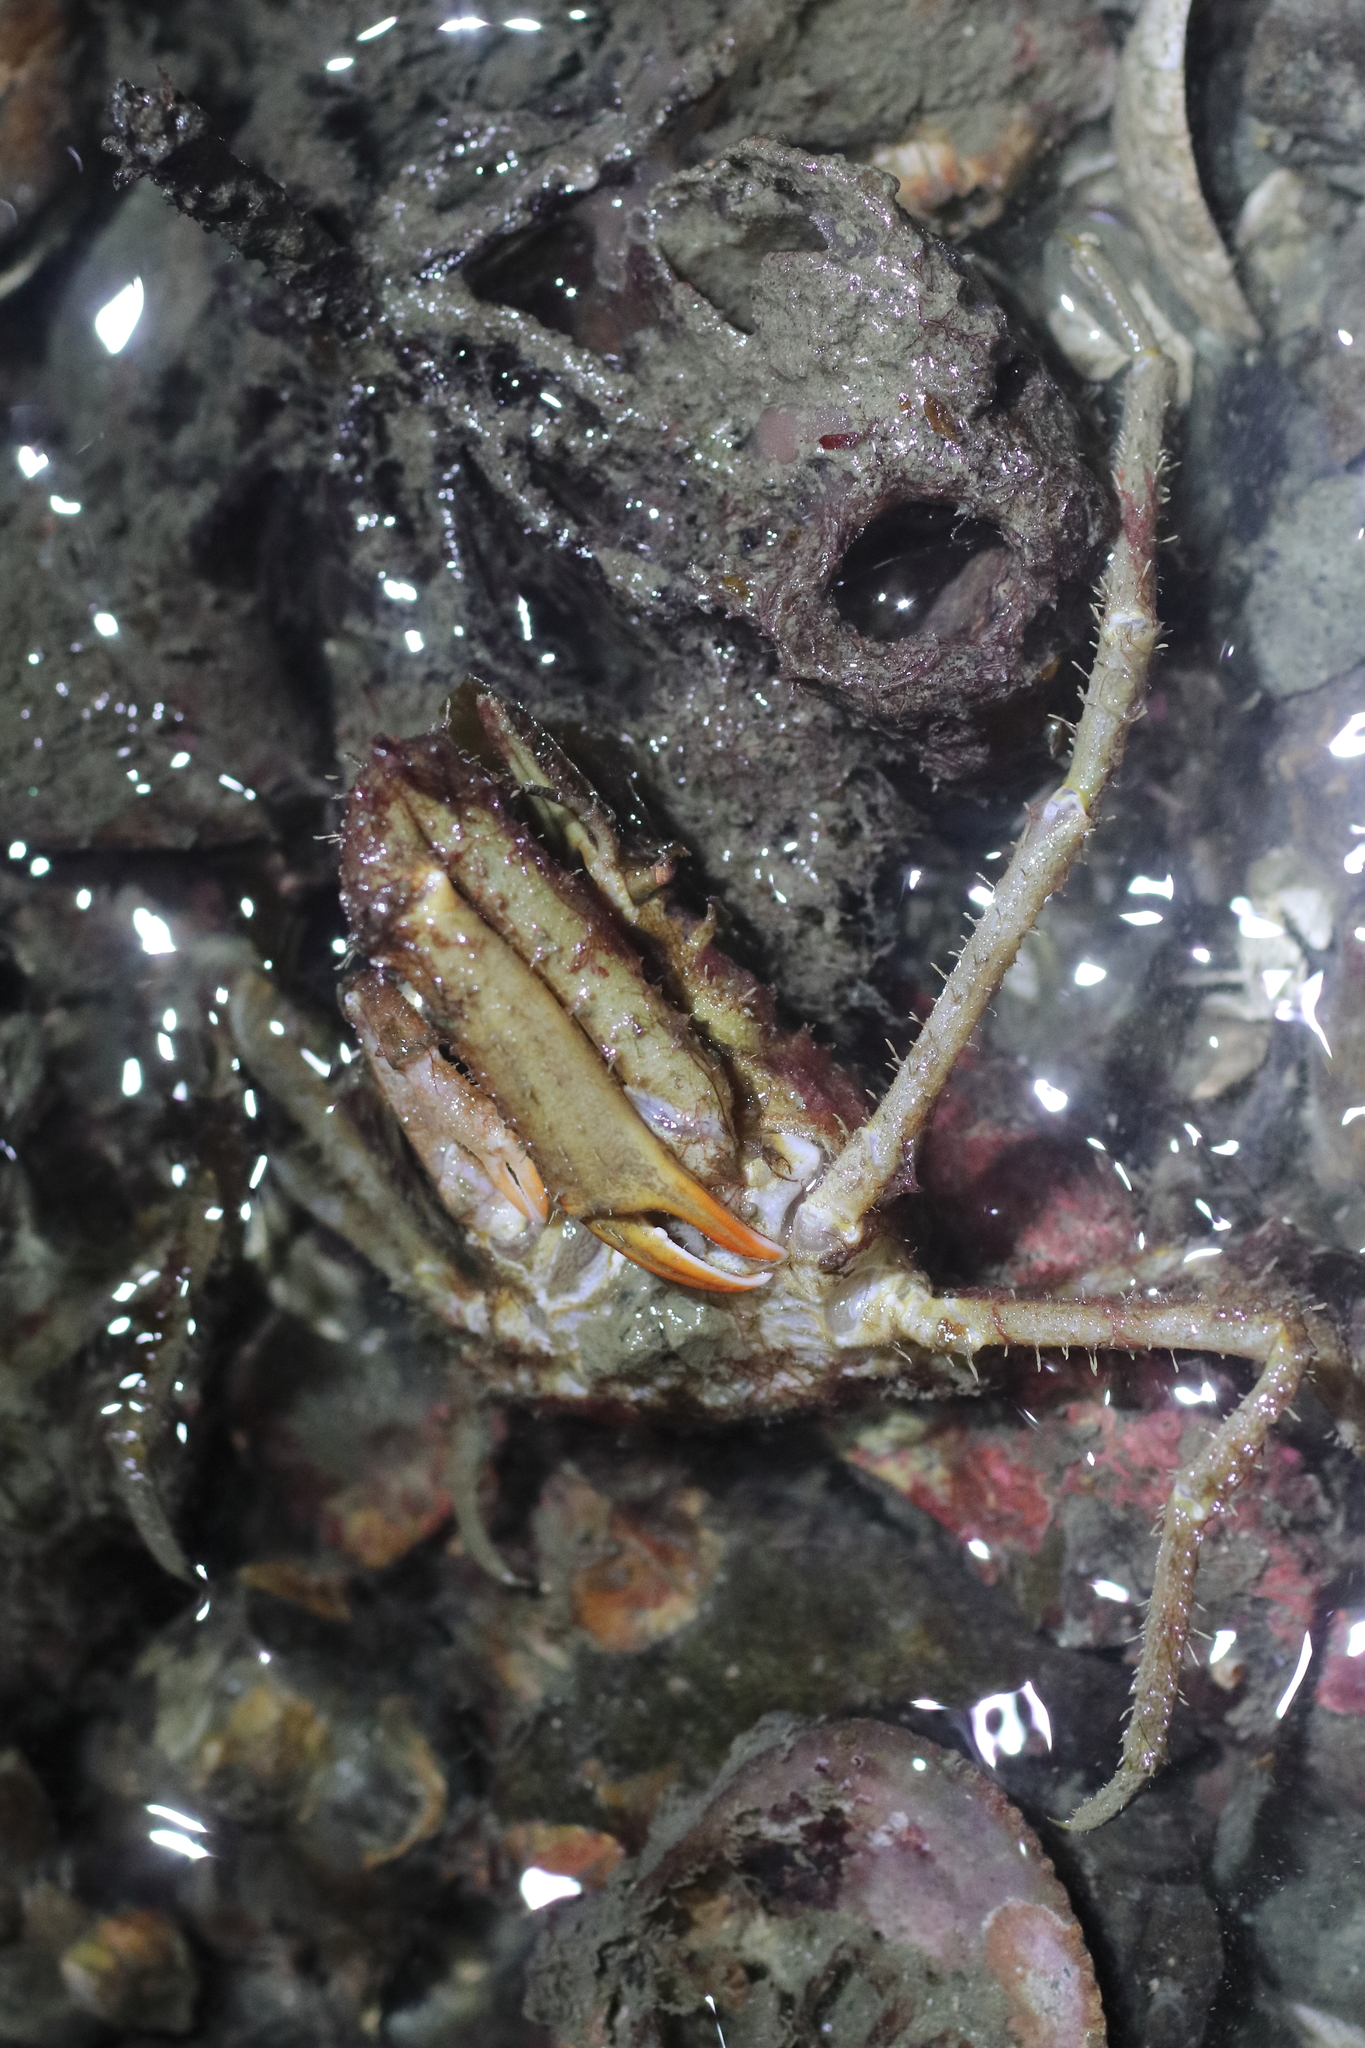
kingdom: Animalia
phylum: Arthropoda
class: Malacostraca
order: Decapoda
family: Oregoniidae
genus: Oregonia
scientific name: Oregonia gracilis
